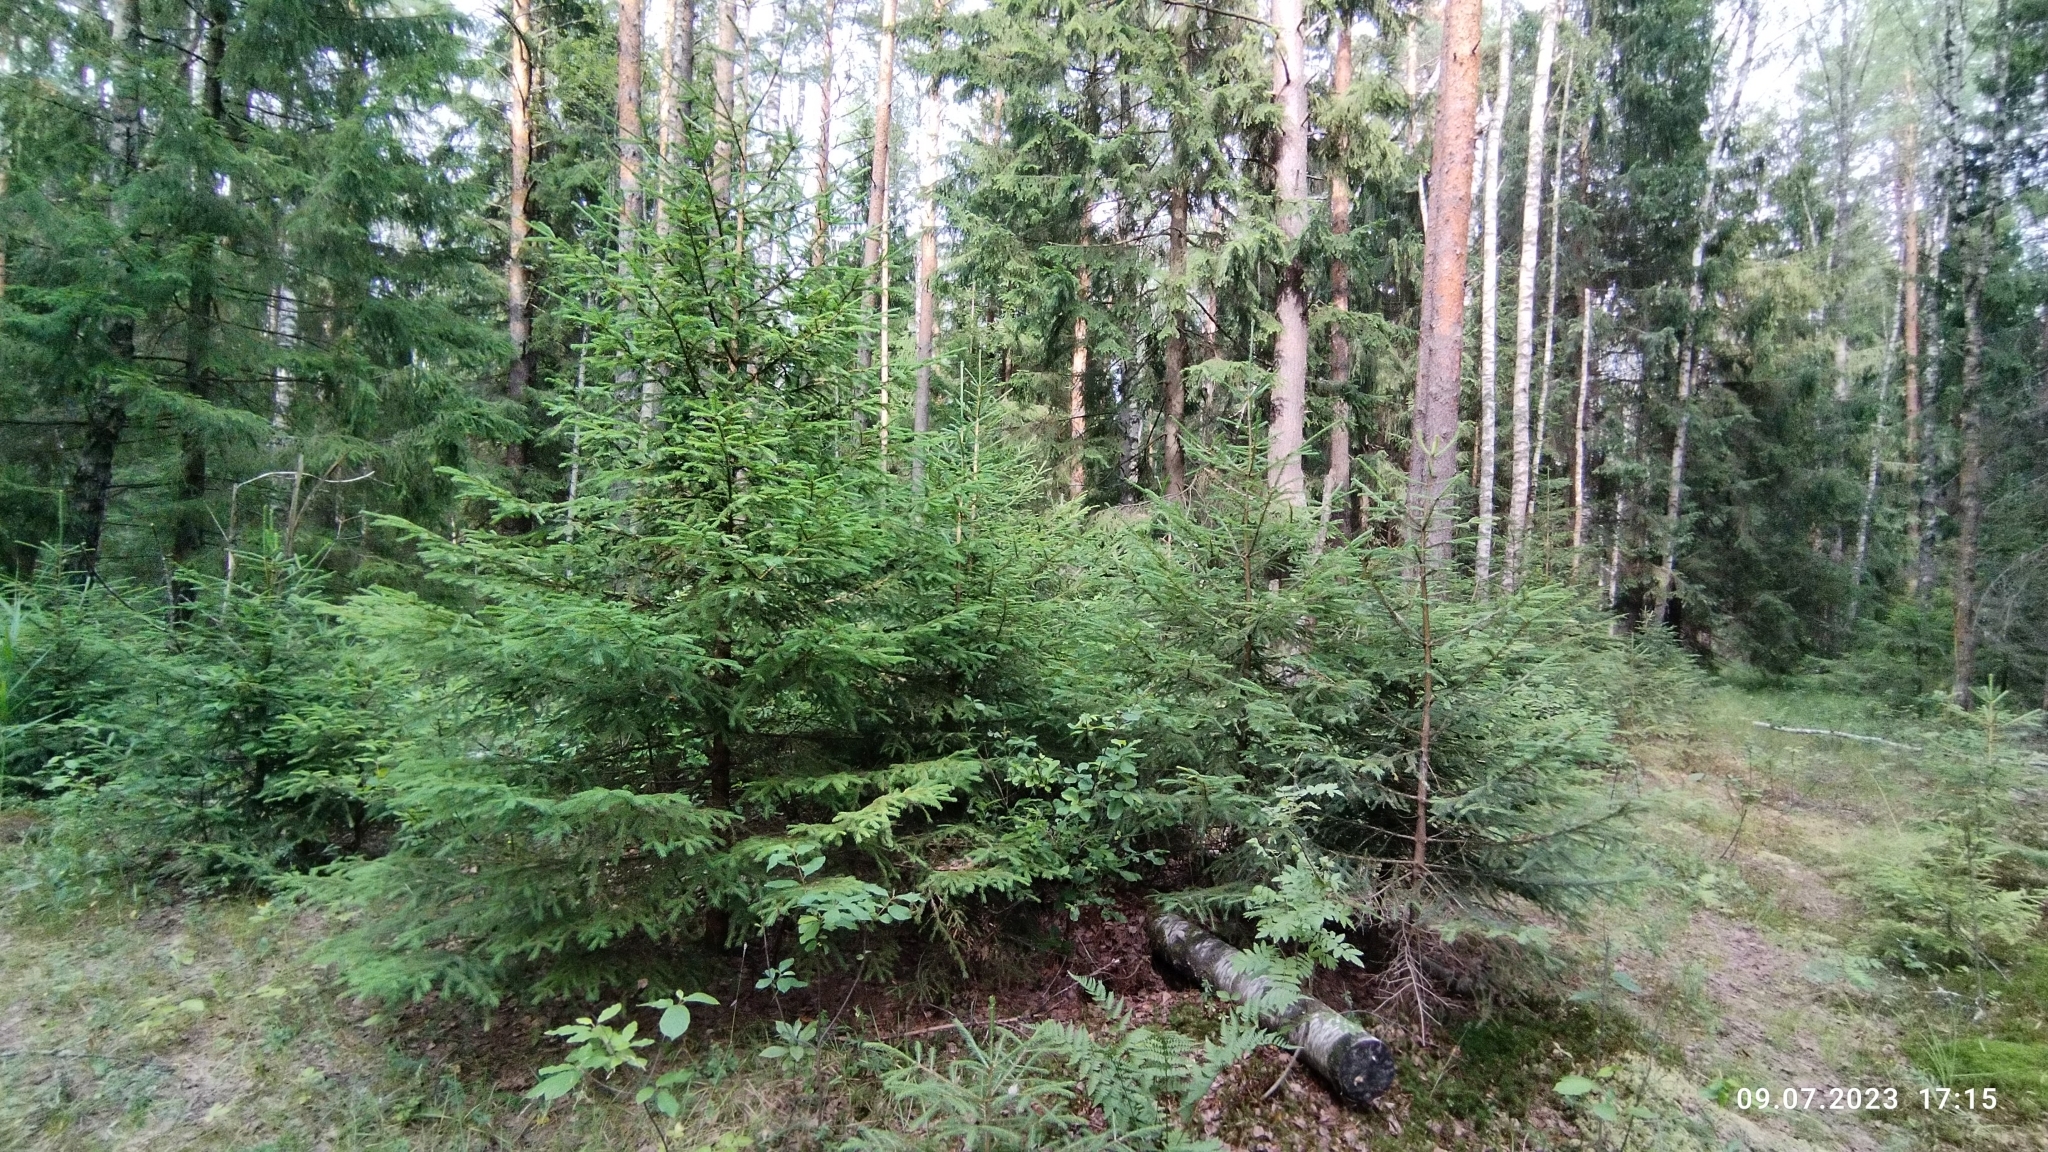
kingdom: Plantae
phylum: Tracheophyta
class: Pinopsida
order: Pinales
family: Pinaceae
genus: Picea
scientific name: Picea abies
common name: Norway spruce
